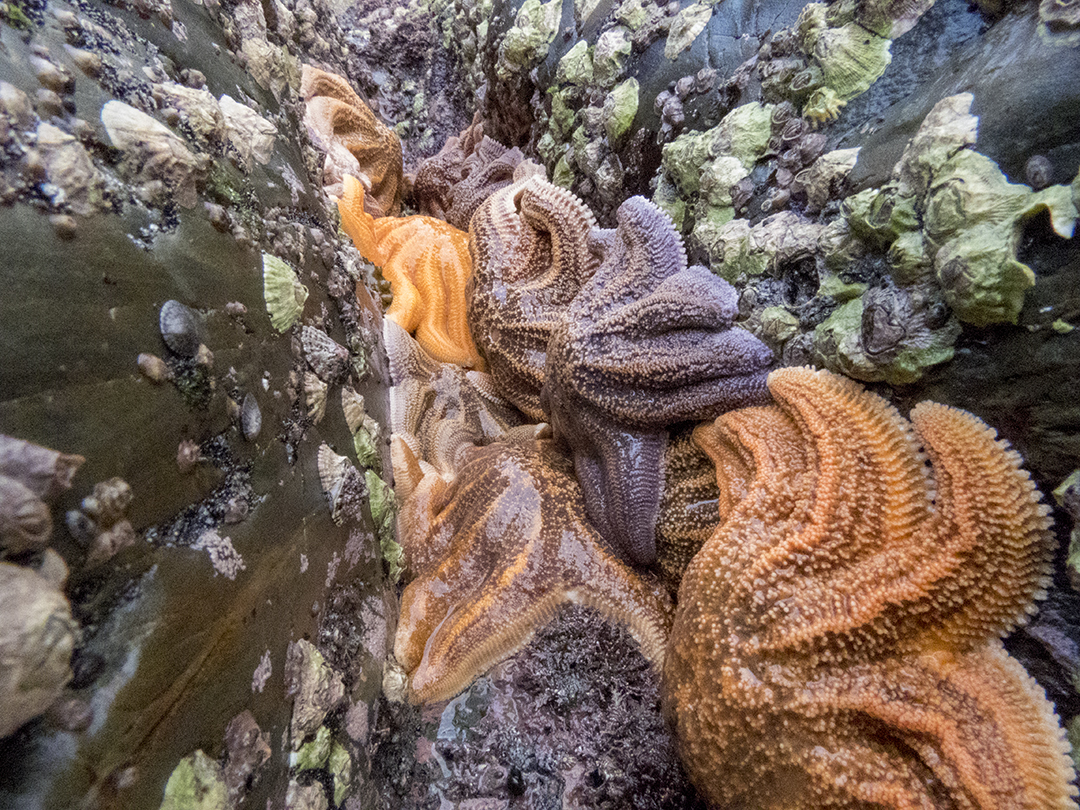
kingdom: Animalia
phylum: Echinodermata
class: Asteroidea
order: Forcipulatida
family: Stichasteridae
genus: Stichaster
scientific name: Stichaster australis
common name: Reef starfish
